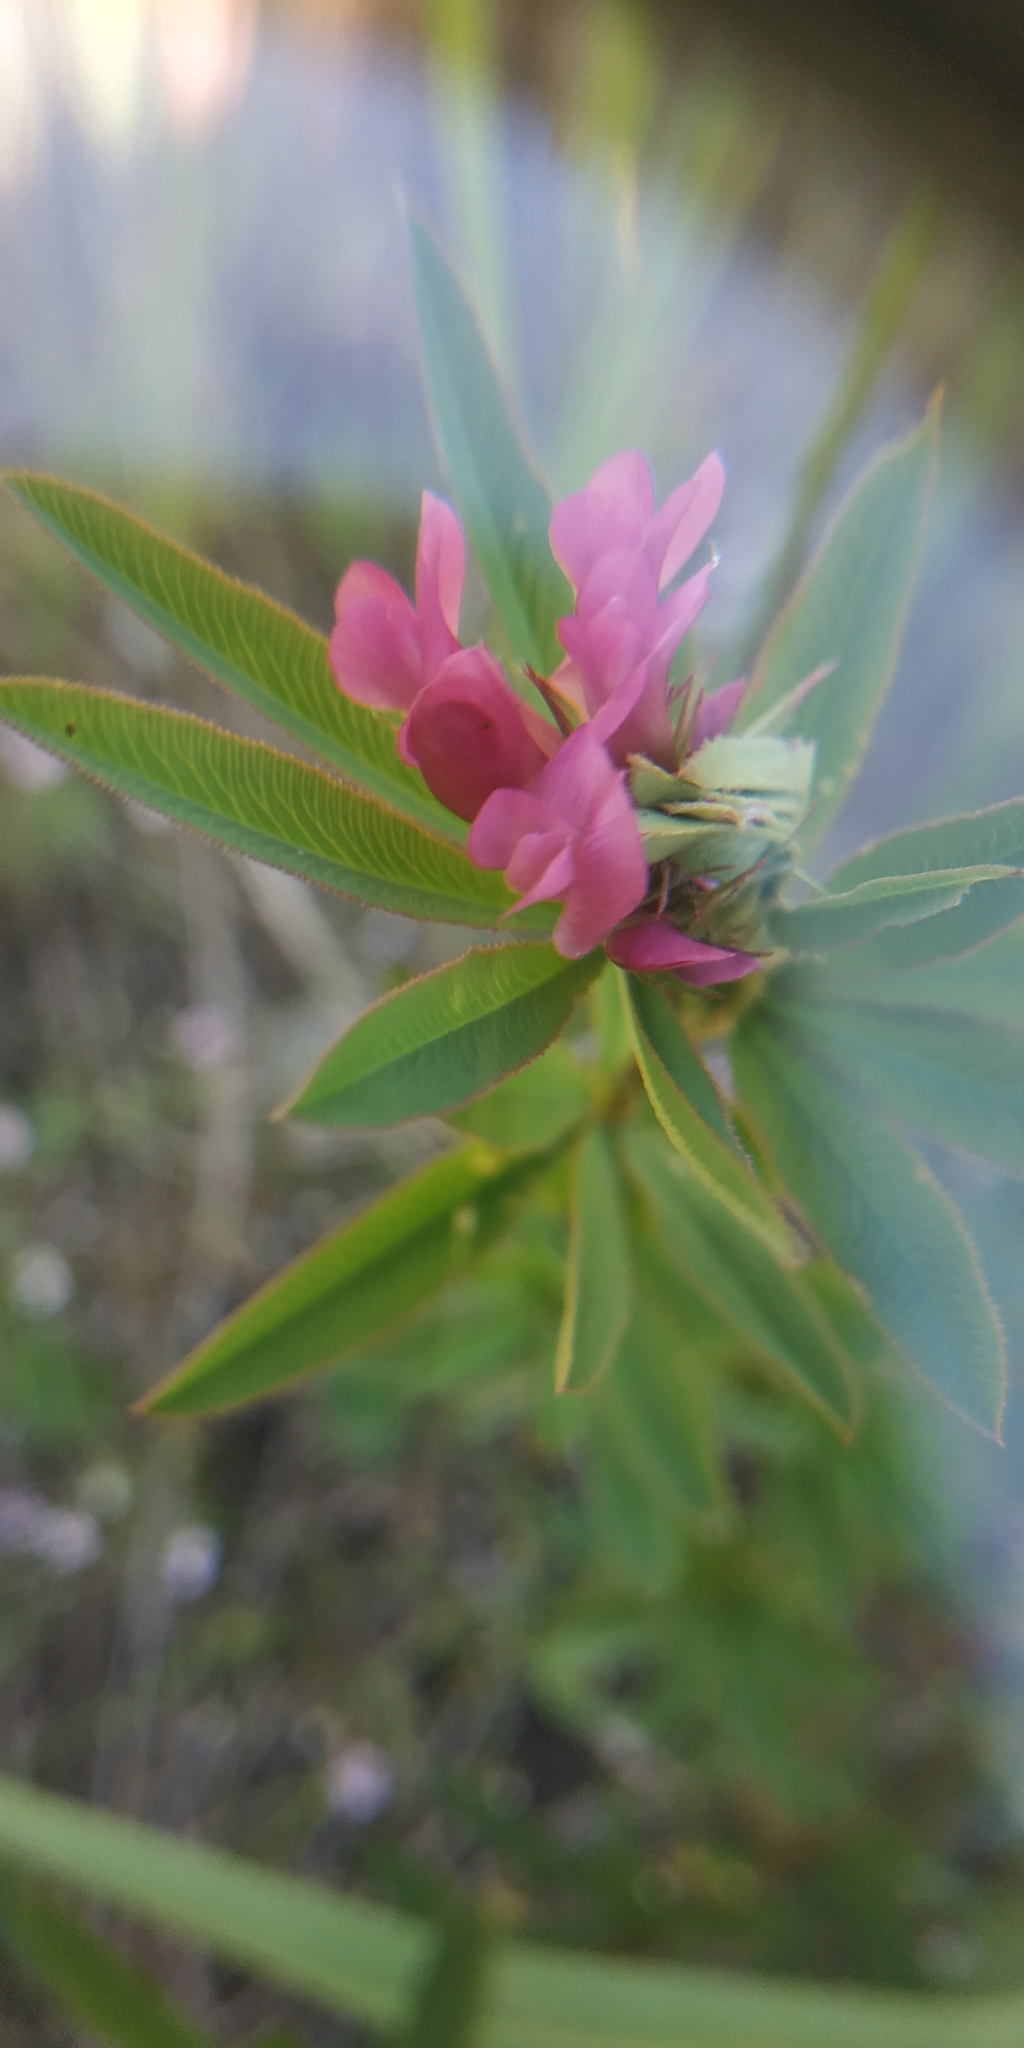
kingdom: Plantae
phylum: Tracheophyta
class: Magnoliopsida
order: Fabales
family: Fabaceae
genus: Trifolium
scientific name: Trifolium lupinaster
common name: Lupine clover
